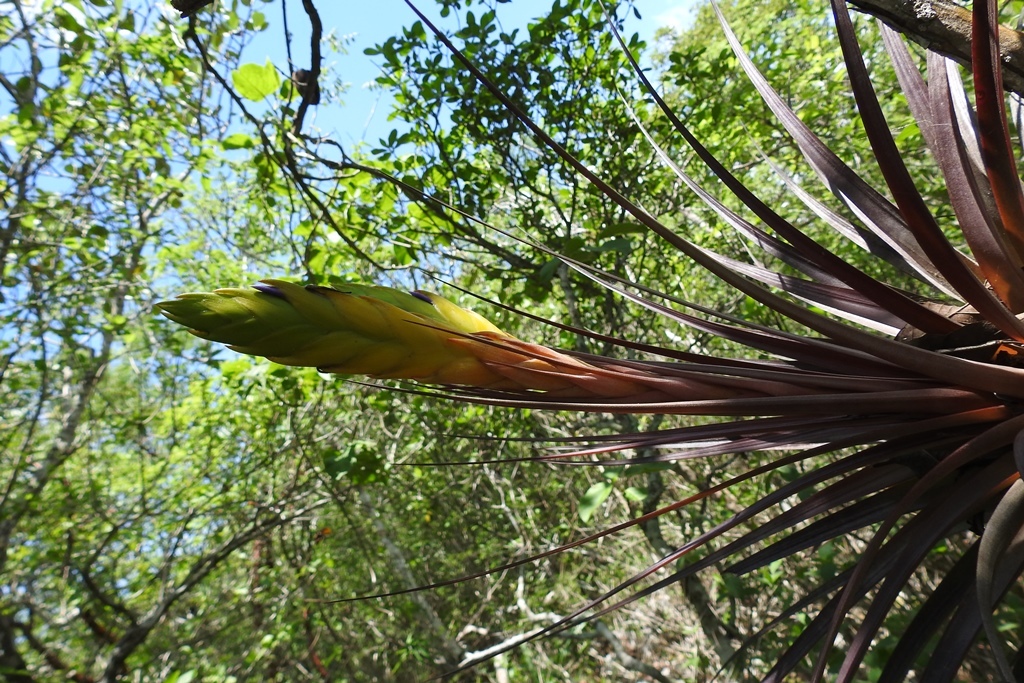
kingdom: Plantae
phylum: Tracheophyta
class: Liliopsida
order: Poales
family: Bromeliaceae
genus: Tillandsia
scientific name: Tillandsia rhomboidea
